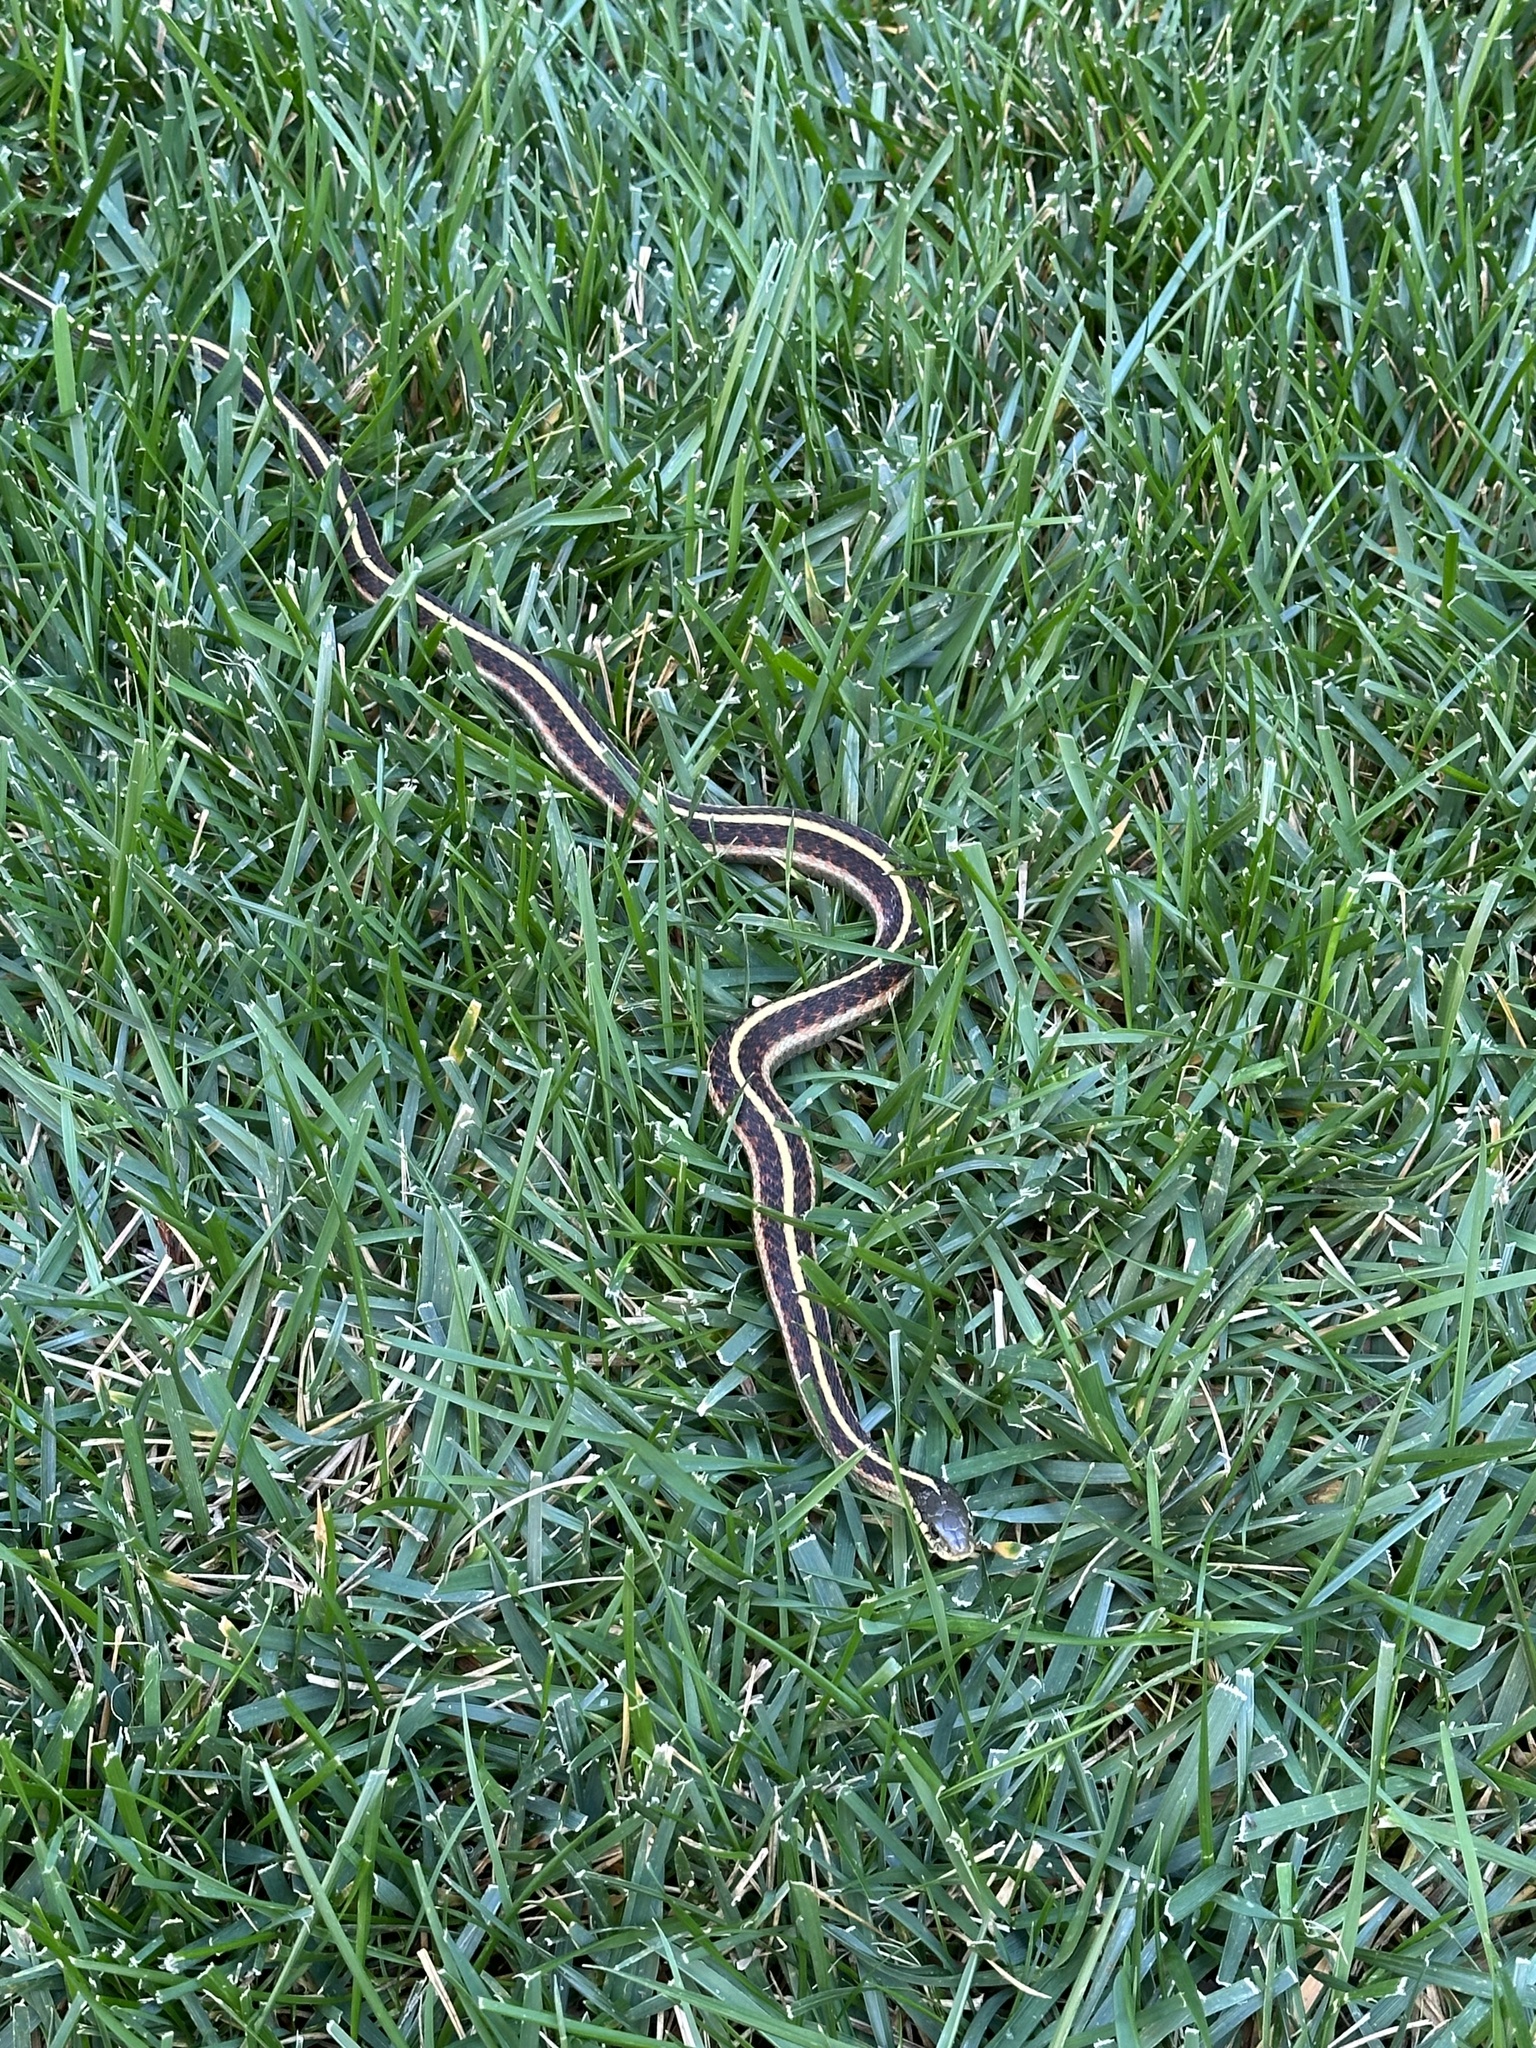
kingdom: Animalia
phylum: Chordata
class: Squamata
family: Colubridae
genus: Thamnophis
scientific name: Thamnophis elegans
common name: Western terrestrial garter snake
